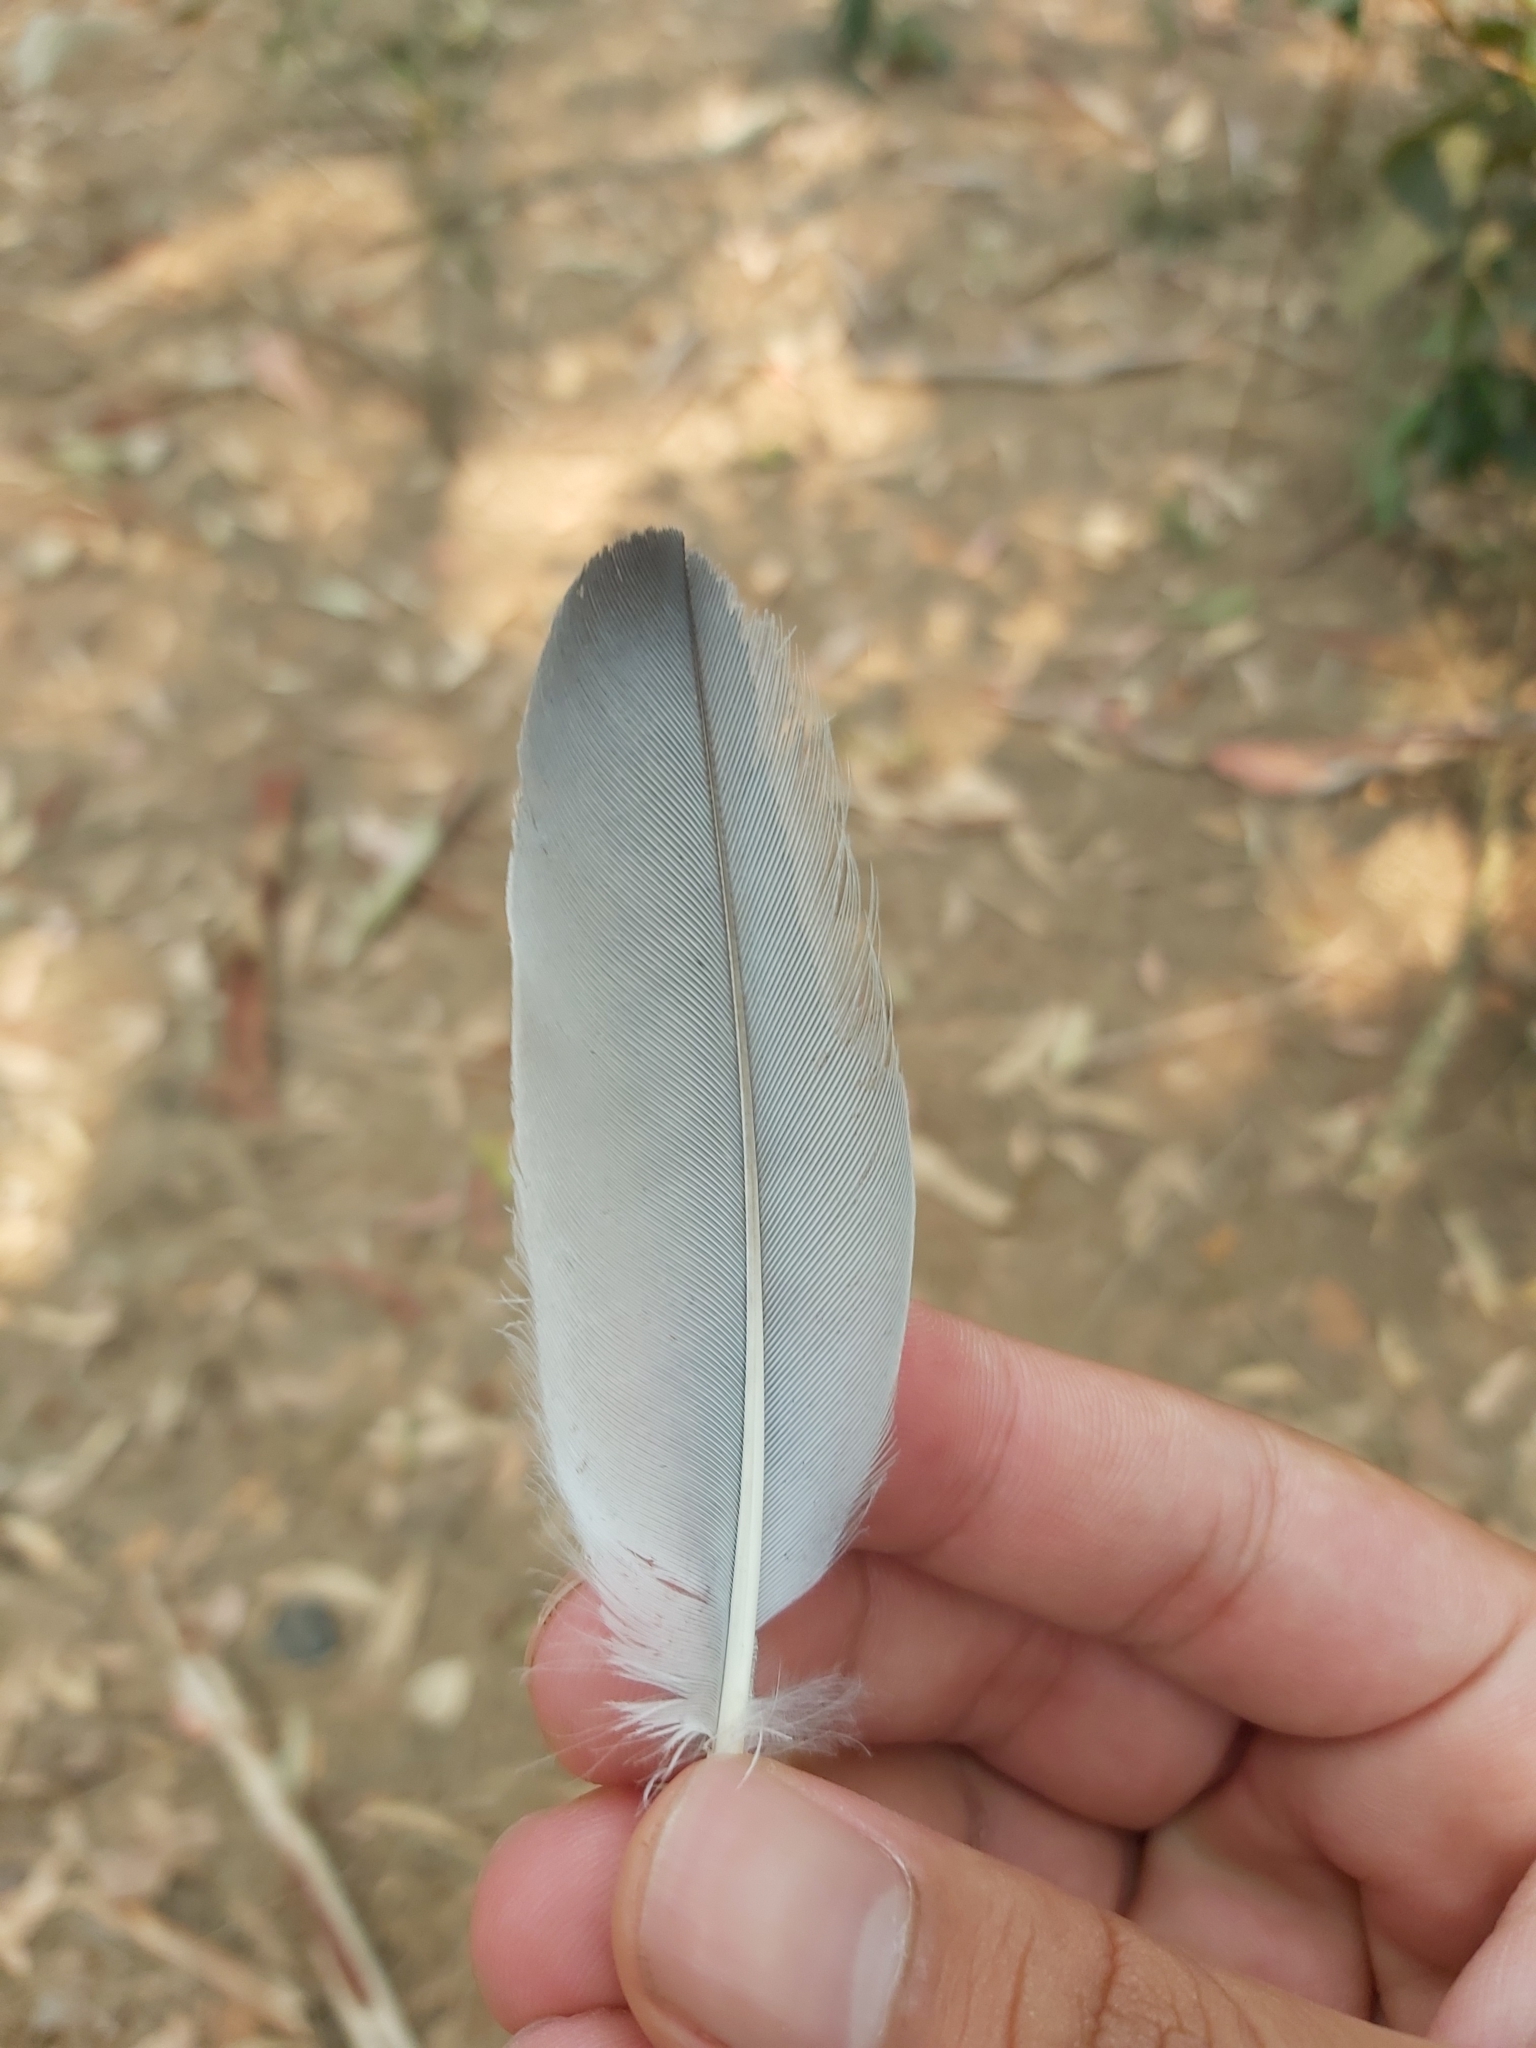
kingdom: Animalia
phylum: Chordata
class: Aves
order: Passeriformes
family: Campephagidae
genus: Coracina
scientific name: Coracina novaehollandiae
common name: Black-faced cuckooshrike
